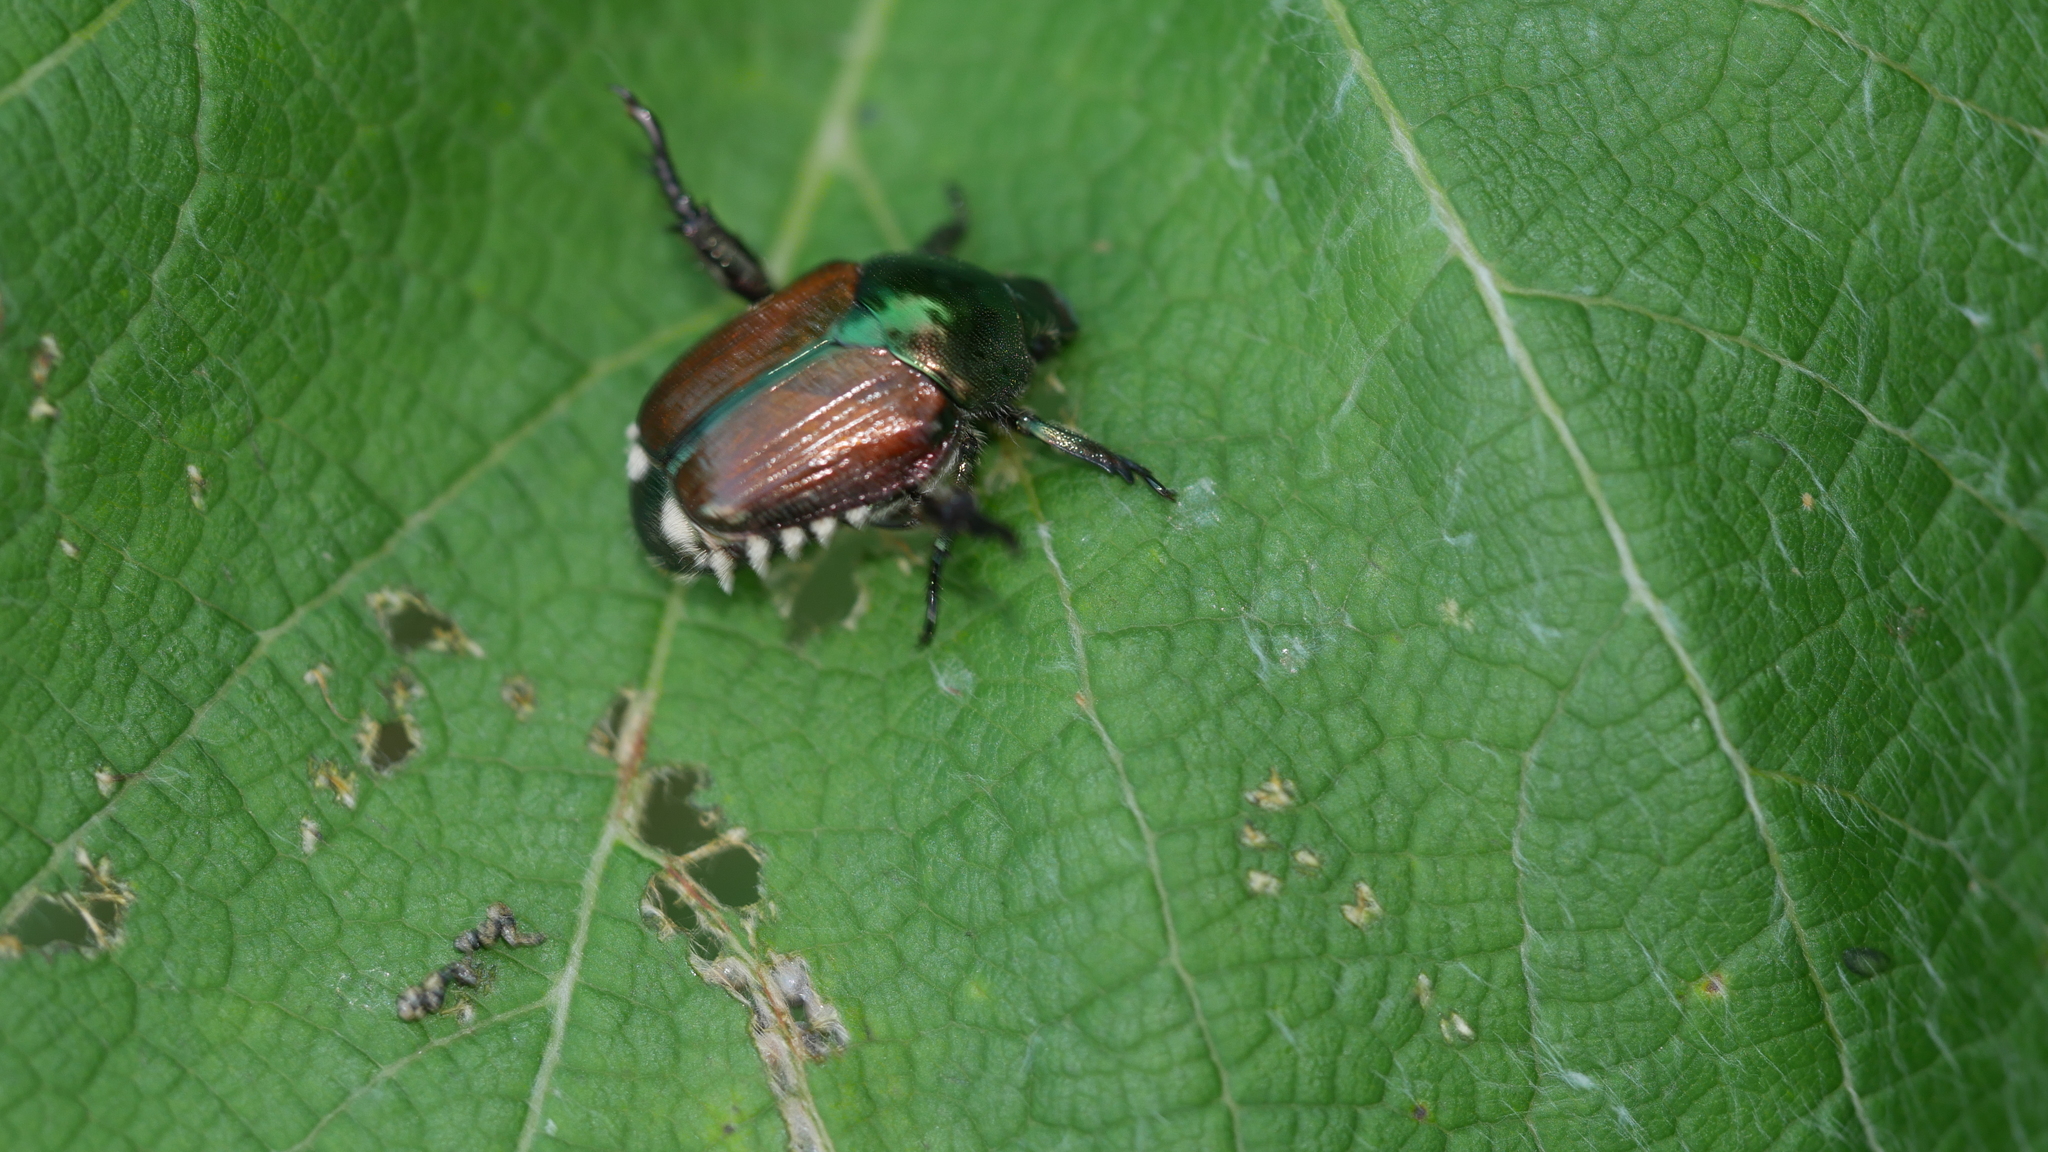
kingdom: Animalia
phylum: Arthropoda
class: Insecta
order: Coleoptera
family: Scarabaeidae
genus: Popillia
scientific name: Popillia japonica
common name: Japanese beetle
